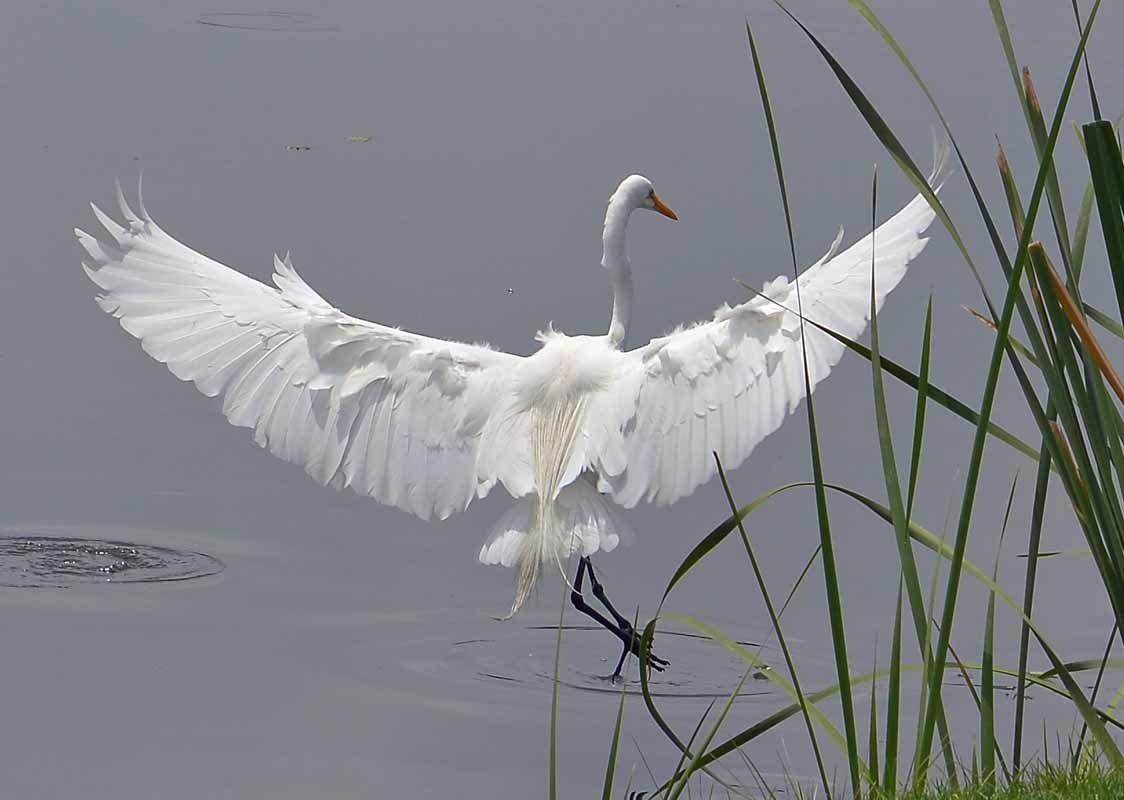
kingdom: Animalia
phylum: Chordata
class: Aves
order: Pelecaniformes
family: Ardeidae
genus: Ardea
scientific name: Ardea alba
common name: Great egret
